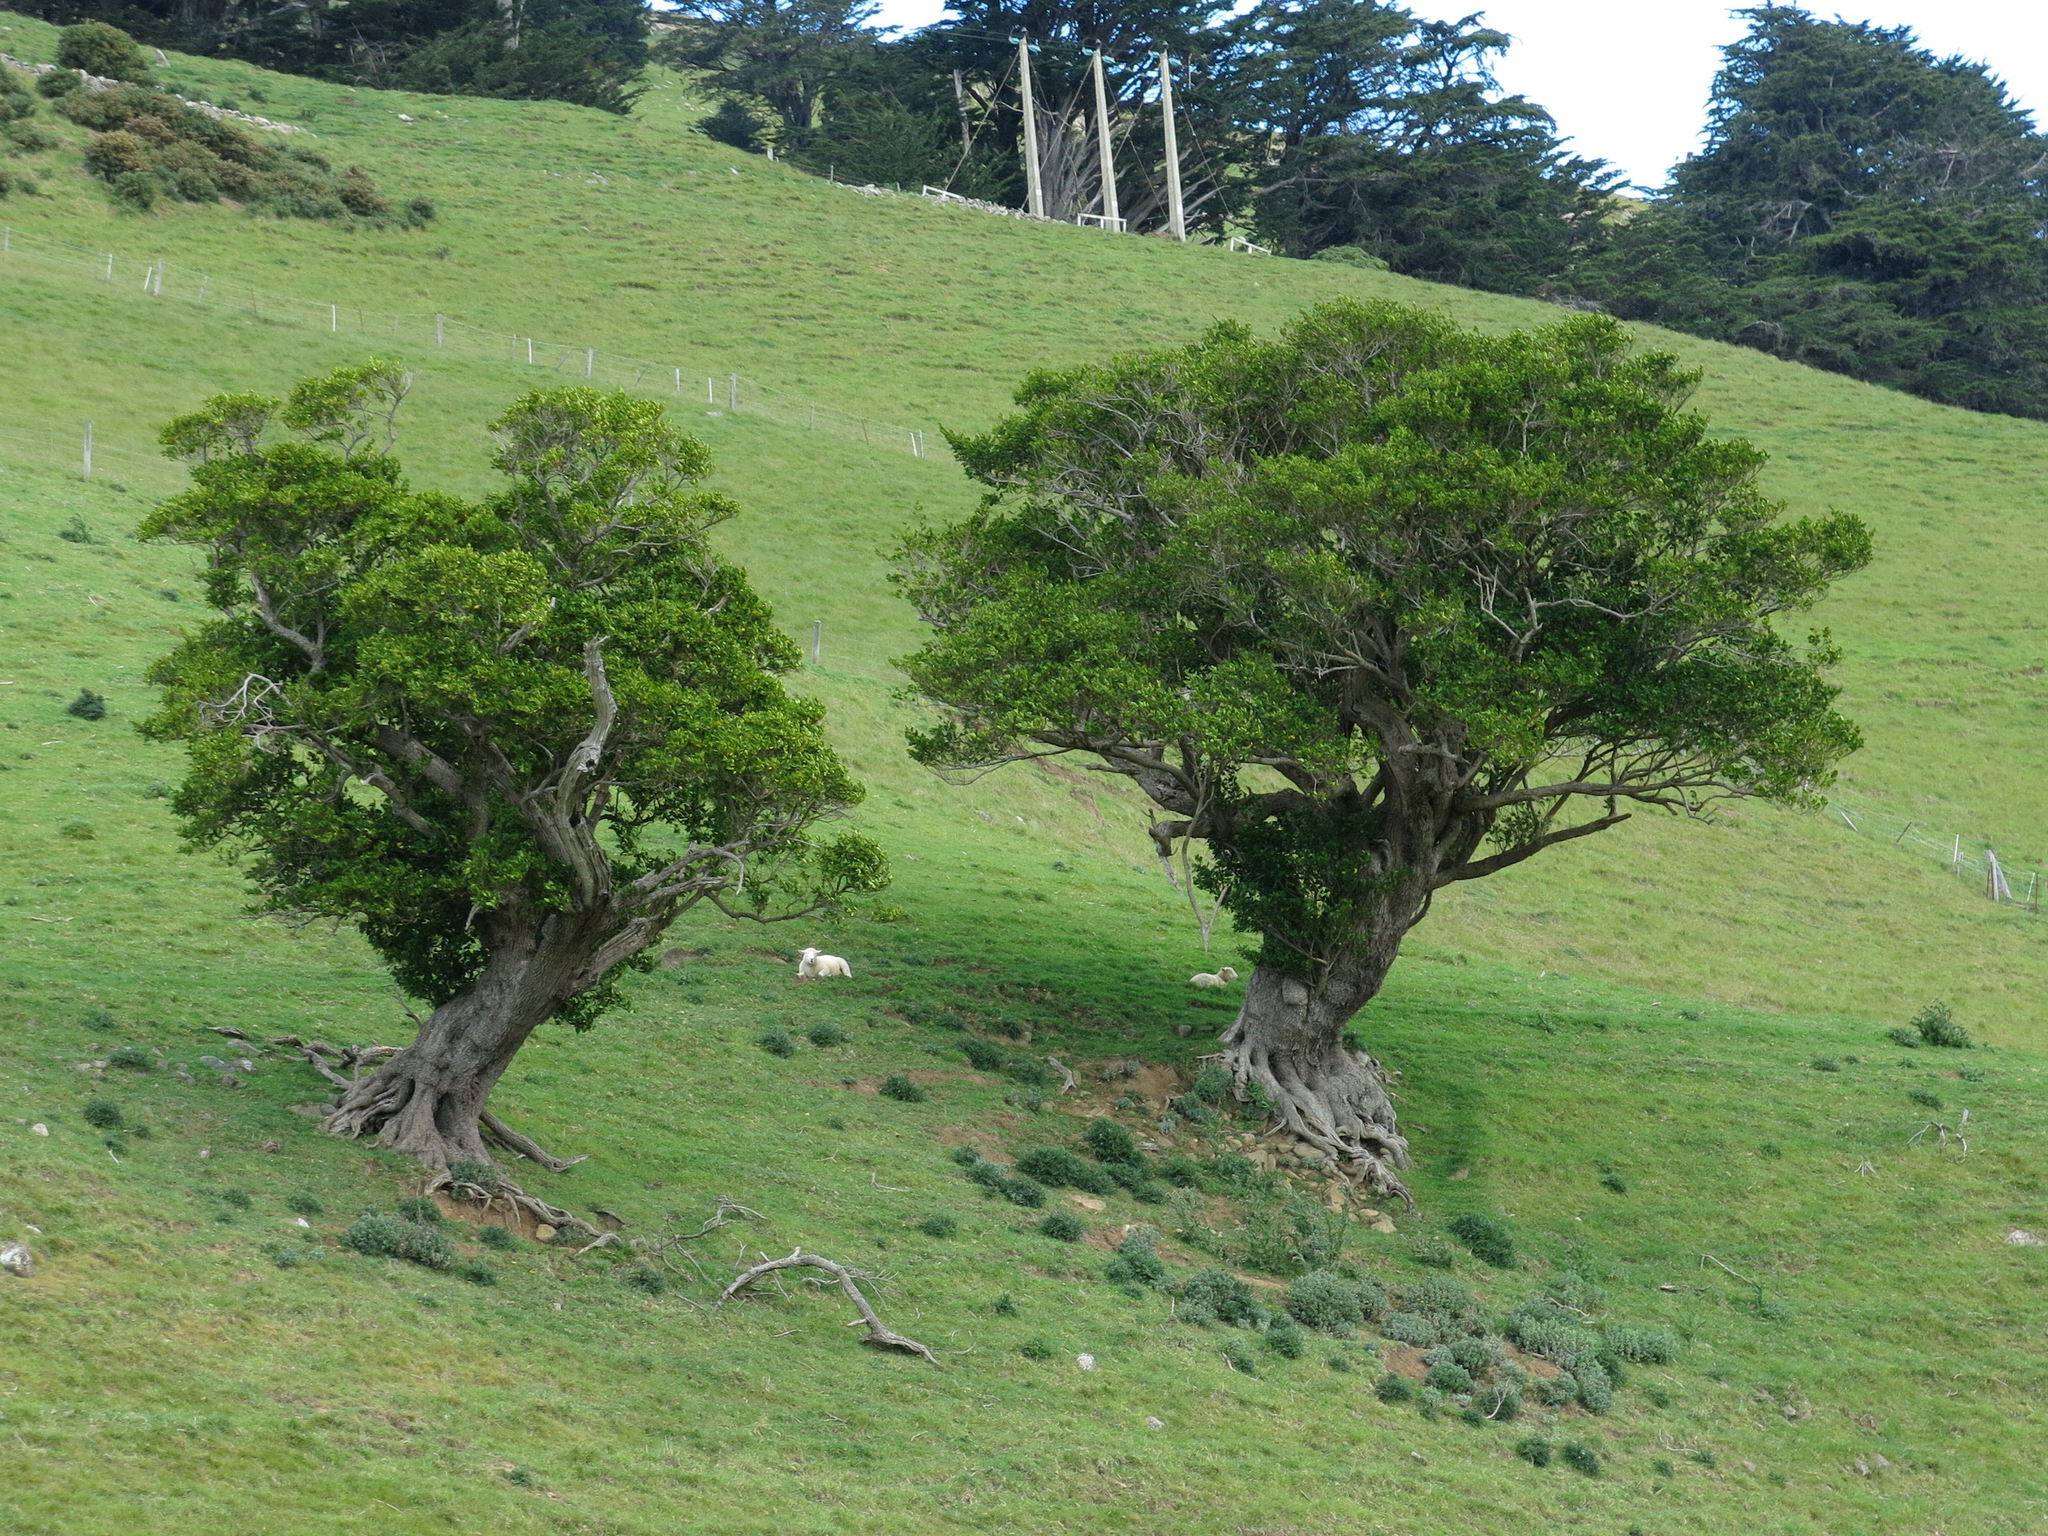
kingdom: Plantae
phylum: Tracheophyta
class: Magnoliopsida
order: Apiales
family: Griseliniaceae
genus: Griselinia
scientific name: Griselinia littoralis
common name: New zealand broadleaf
